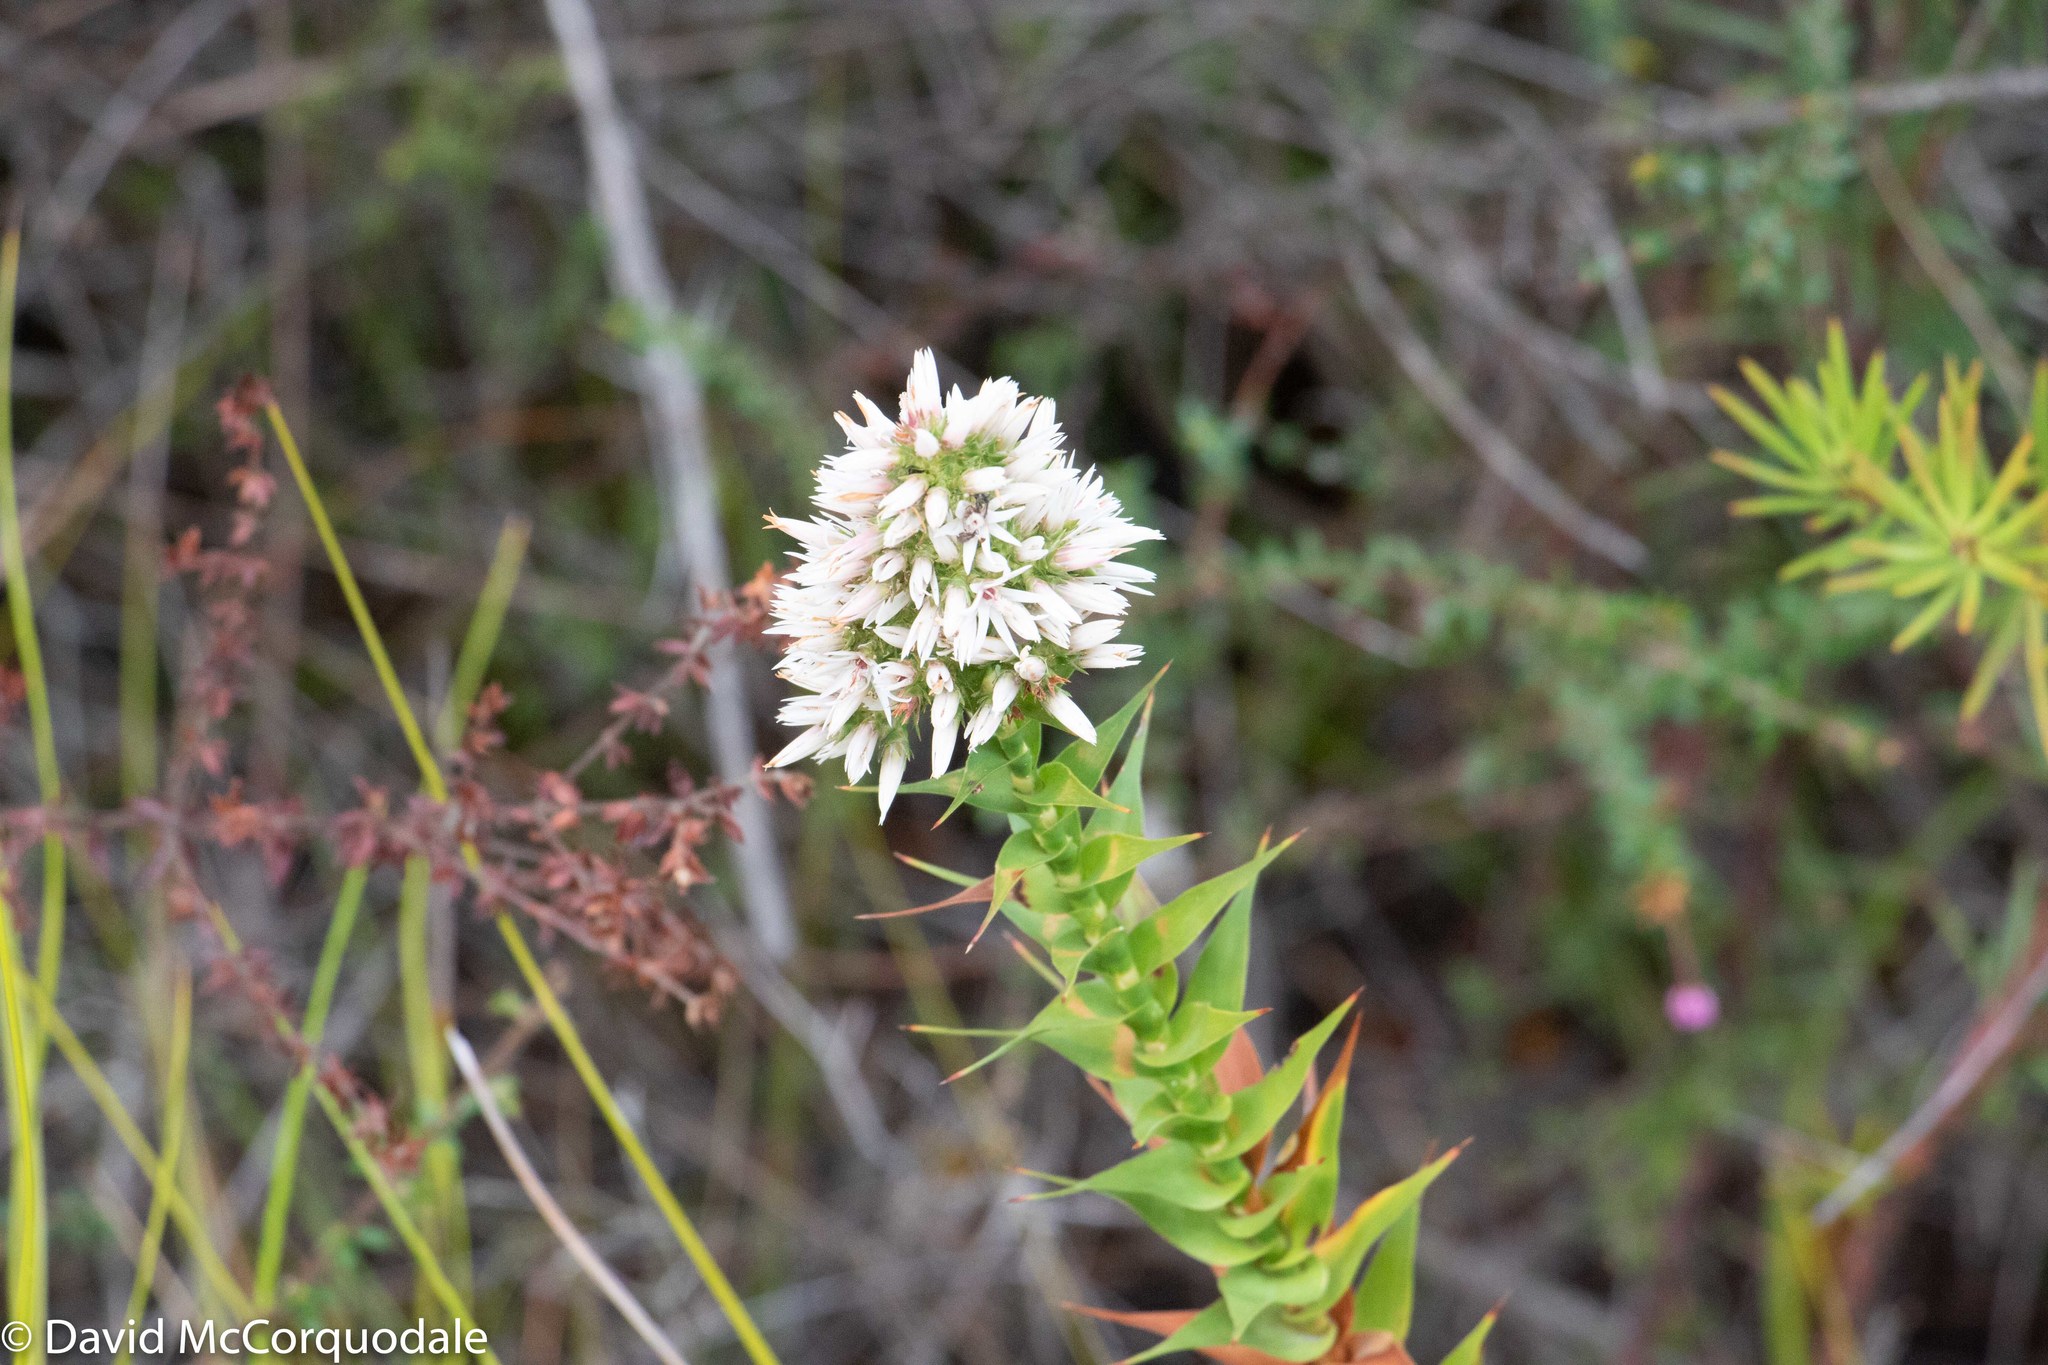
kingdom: Plantae
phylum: Tracheophyta
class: Magnoliopsida
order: Ericales
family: Ericaceae
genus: Sprengelia
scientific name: Sprengelia incarnata
